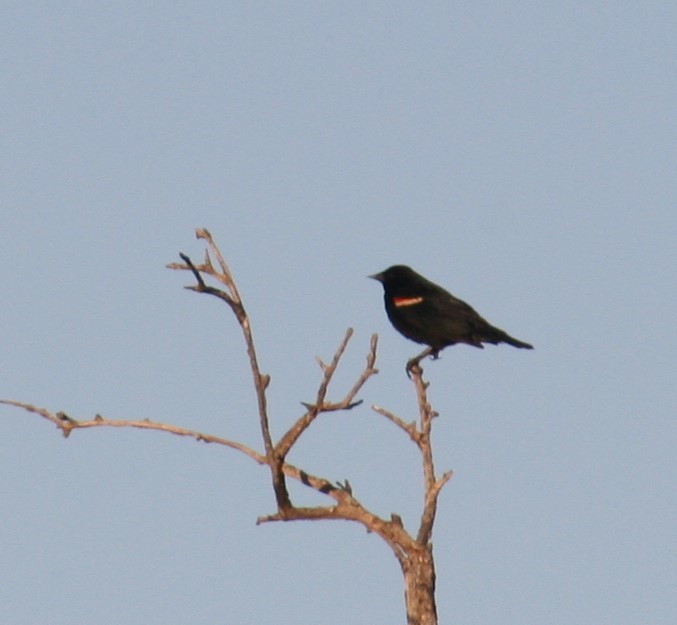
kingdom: Animalia
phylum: Chordata
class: Aves
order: Passeriformes
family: Icteridae
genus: Agelaius
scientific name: Agelaius phoeniceus
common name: Red-winged blackbird
